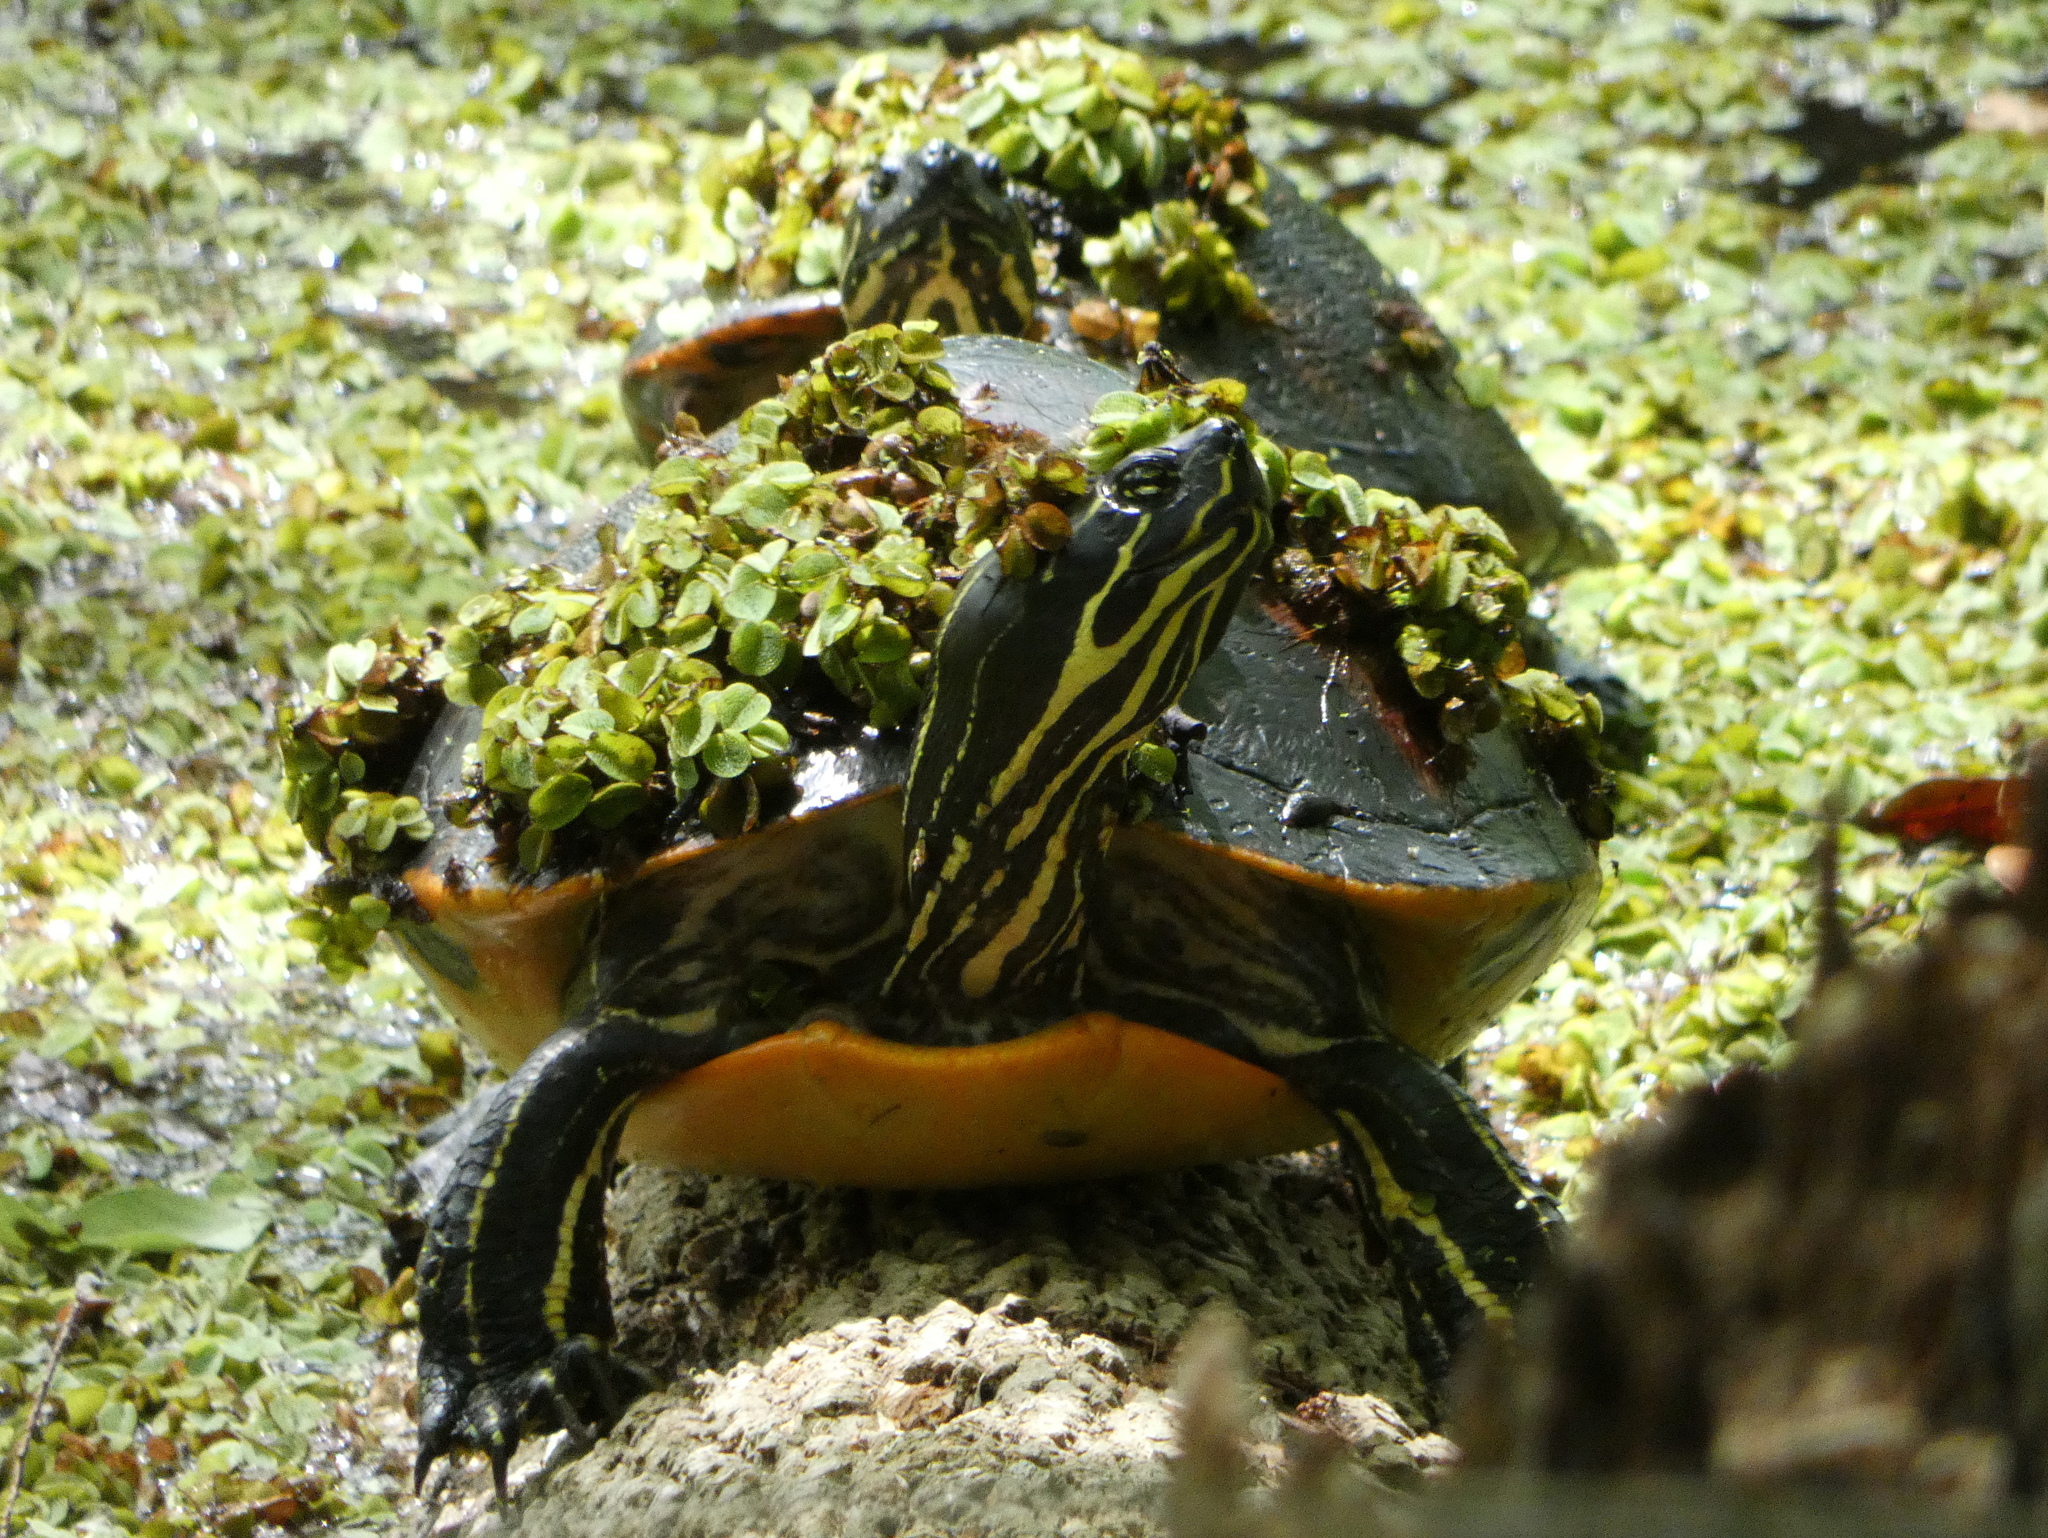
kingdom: Animalia
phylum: Chordata
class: Testudines
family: Emydidae
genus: Pseudemys
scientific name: Pseudemys nelsoni
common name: Florida red-bellied turtle
